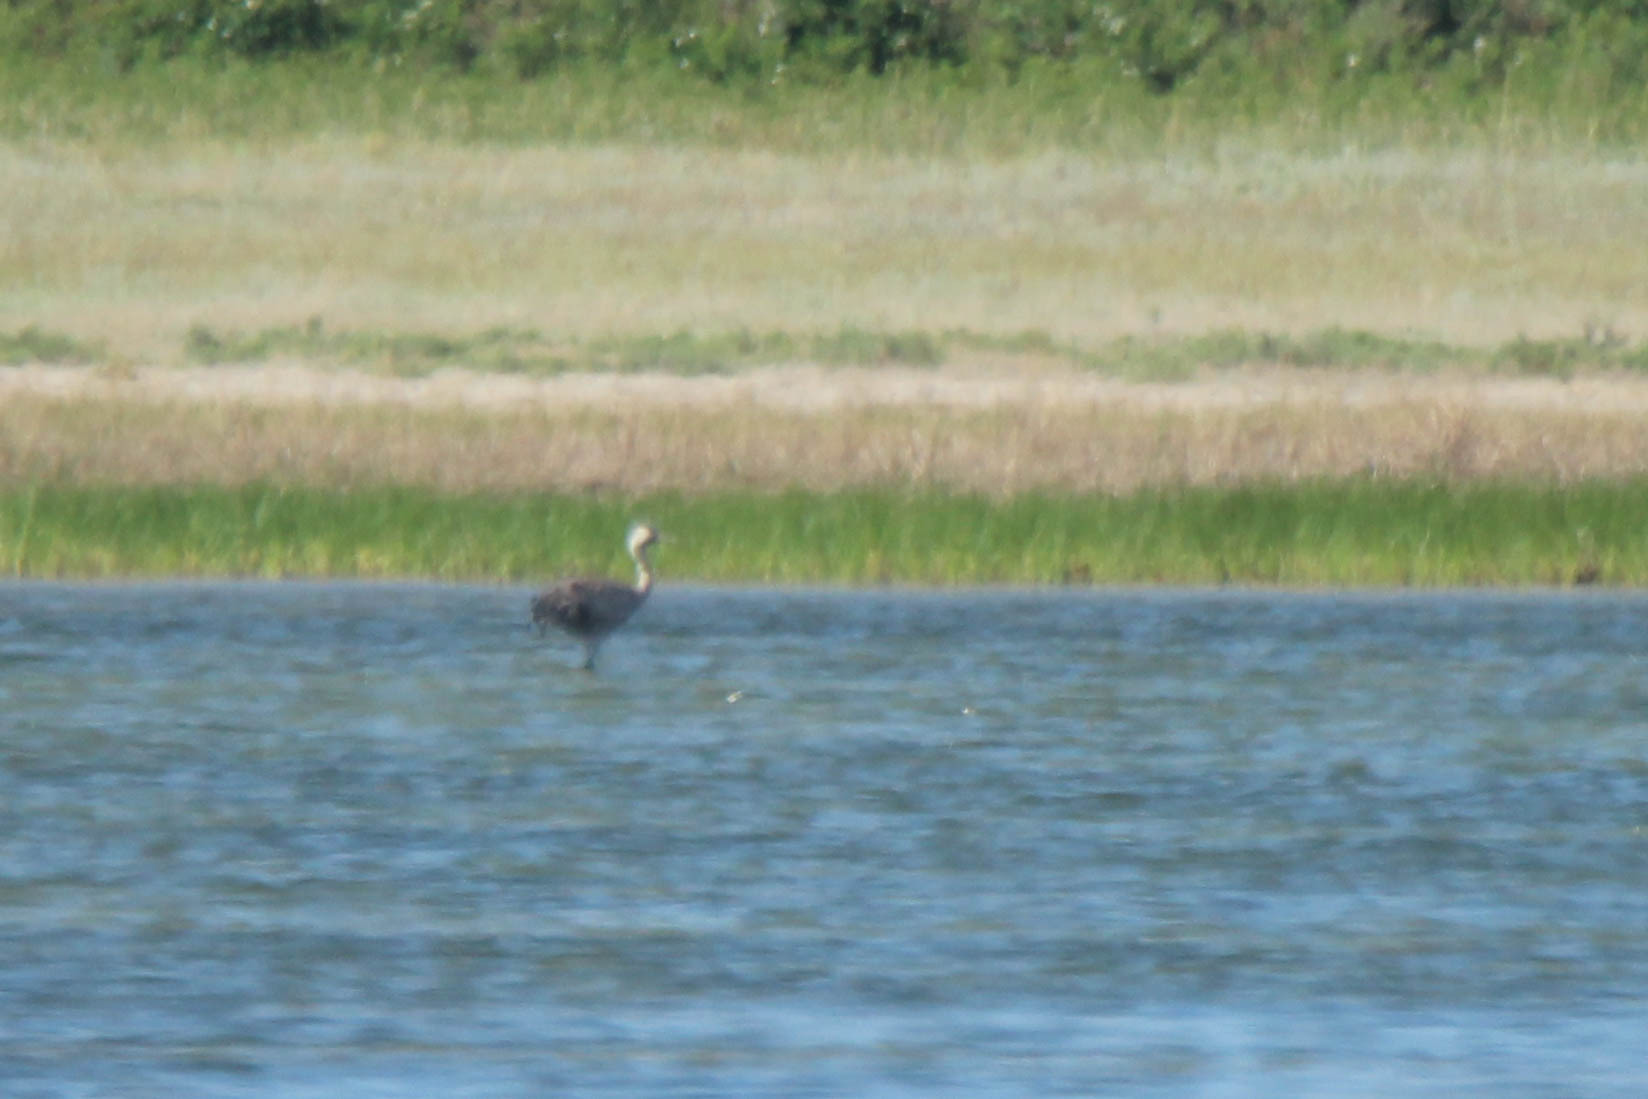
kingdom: Animalia
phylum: Chordata
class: Aves
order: Gruiformes
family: Gruidae
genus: Grus
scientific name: Grus grus
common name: Common crane
